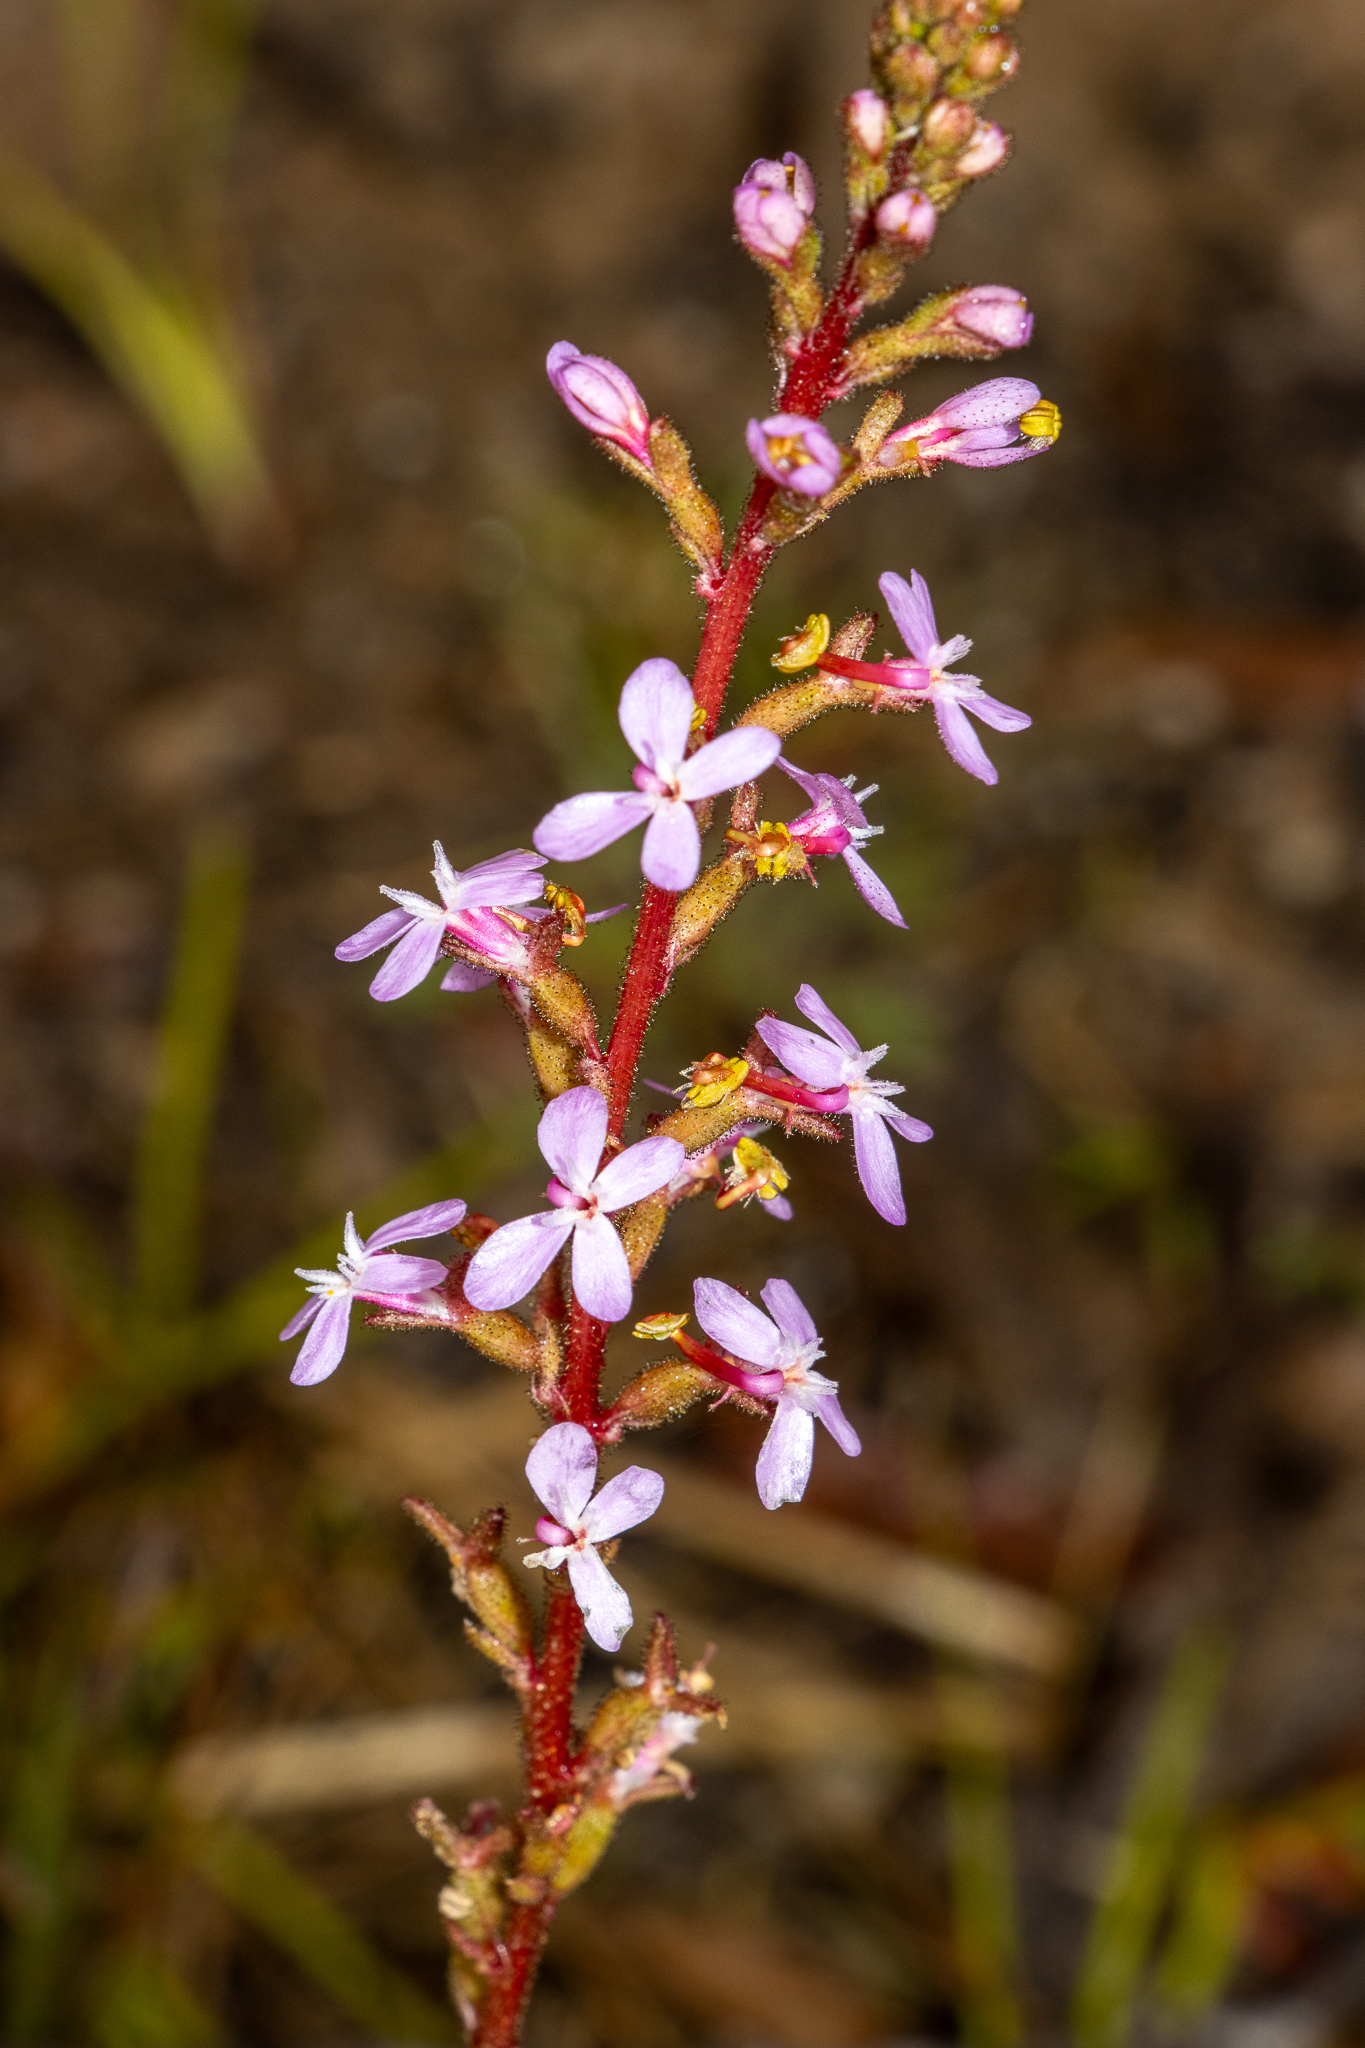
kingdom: Plantae
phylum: Tracheophyta
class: Magnoliopsida
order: Asterales
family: Stylidiaceae
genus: Stylidium
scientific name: Stylidium armeria
